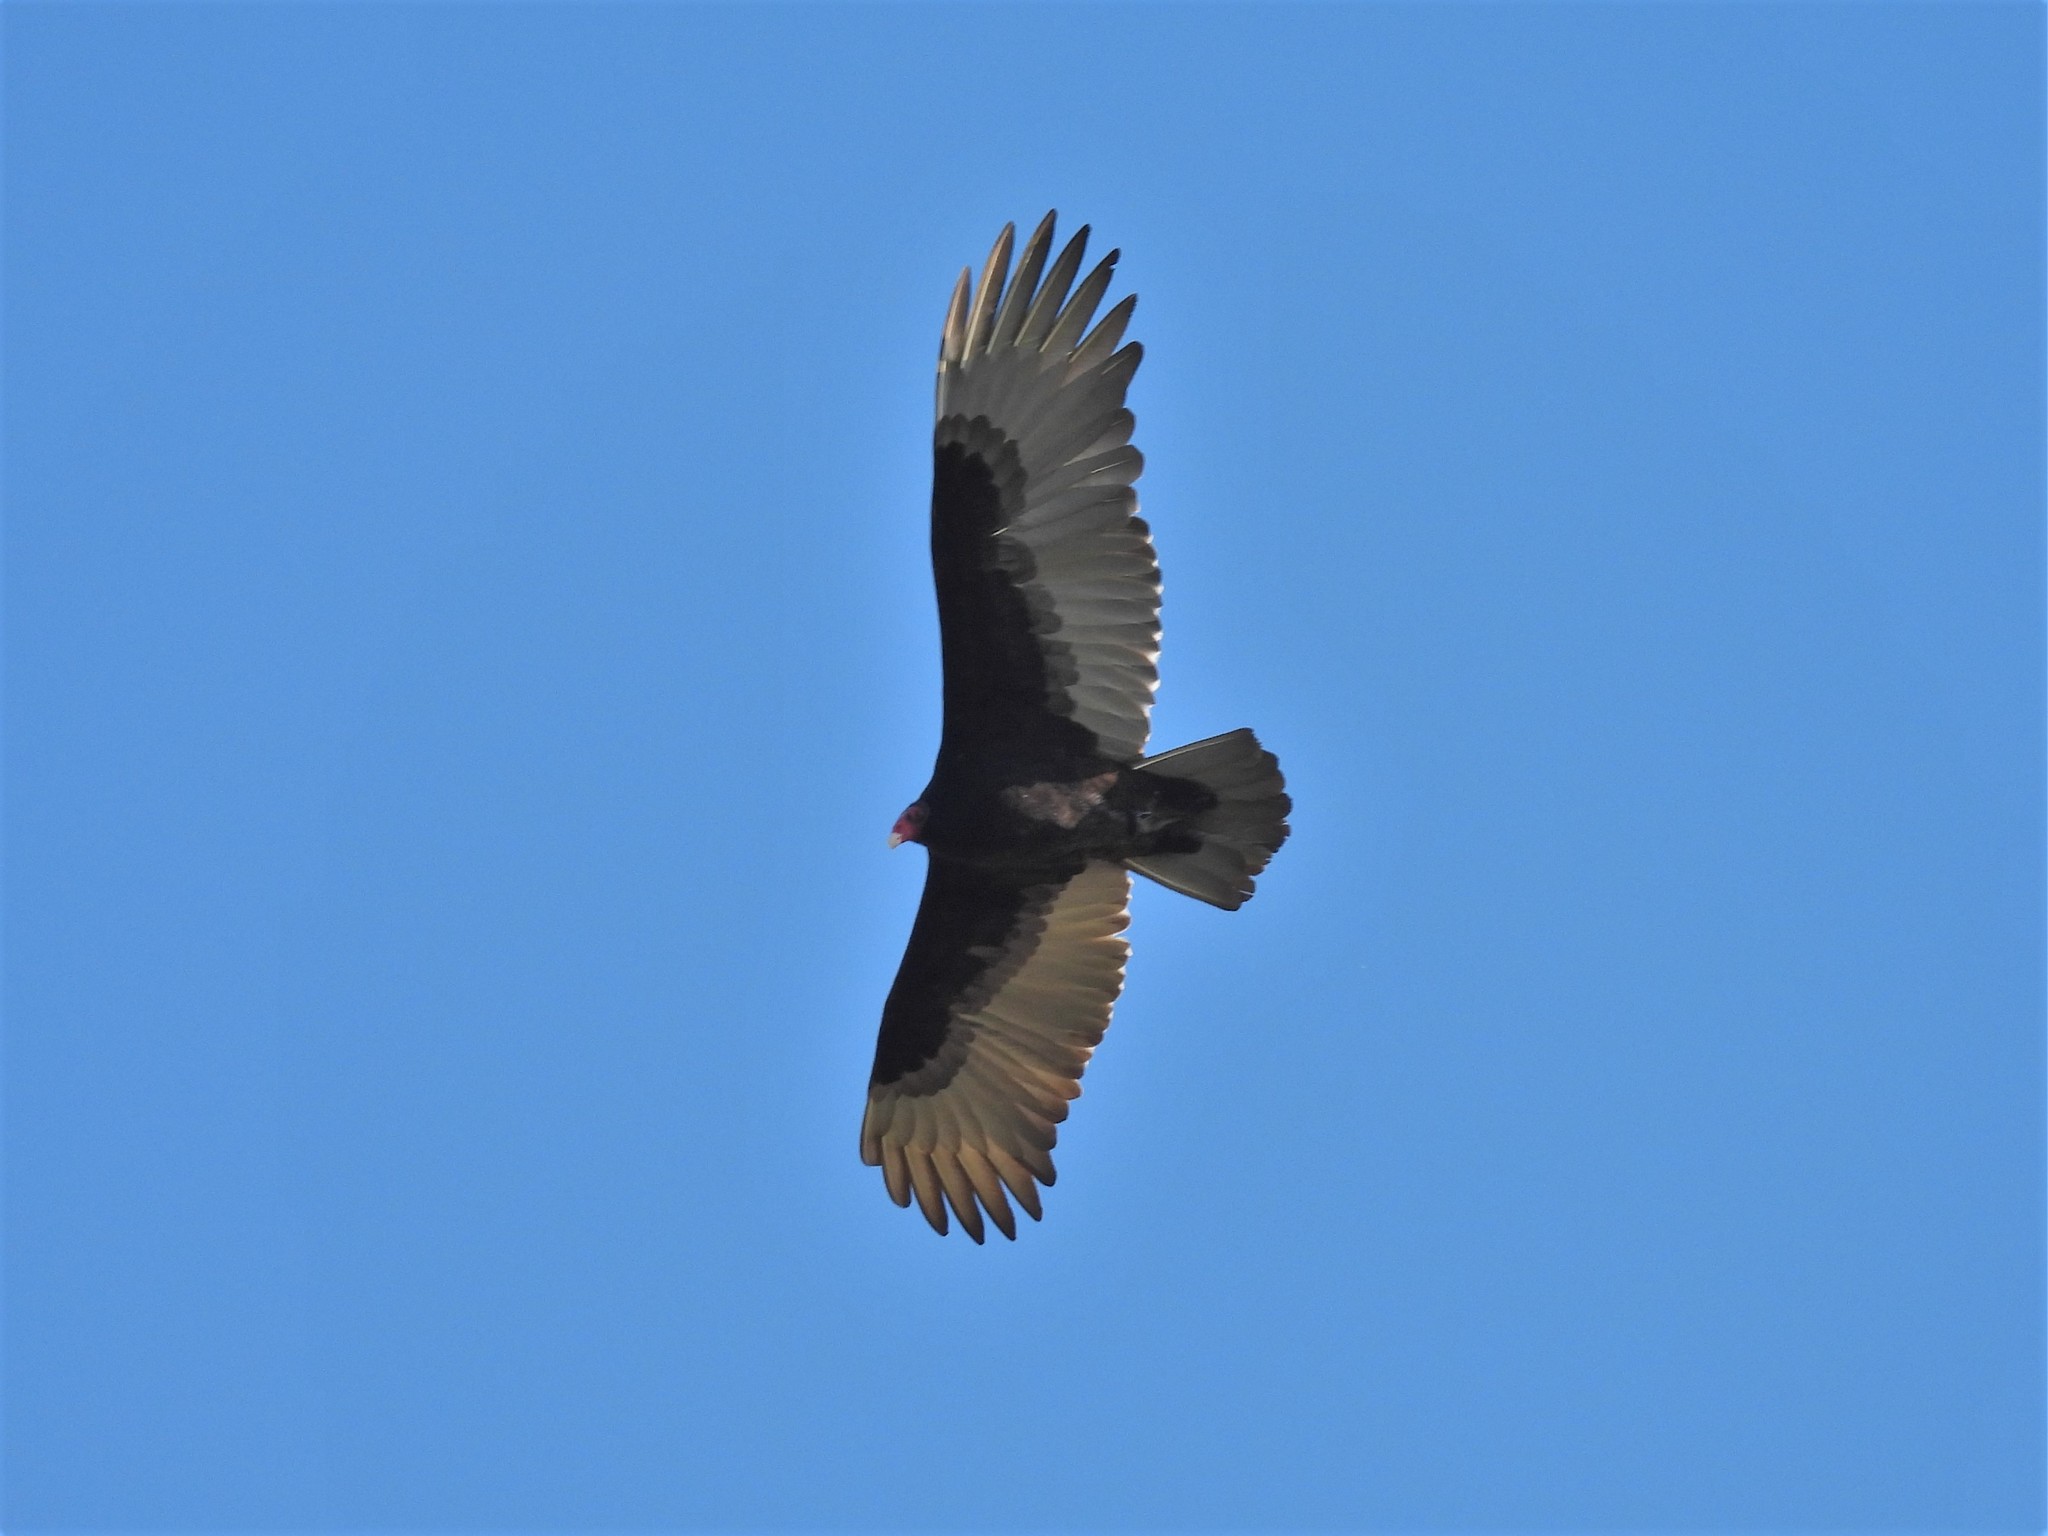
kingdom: Animalia
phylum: Chordata
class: Aves
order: Accipitriformes
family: Cathartidae
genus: Cathartes
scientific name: Cathartes aura
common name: Turkey vulture
